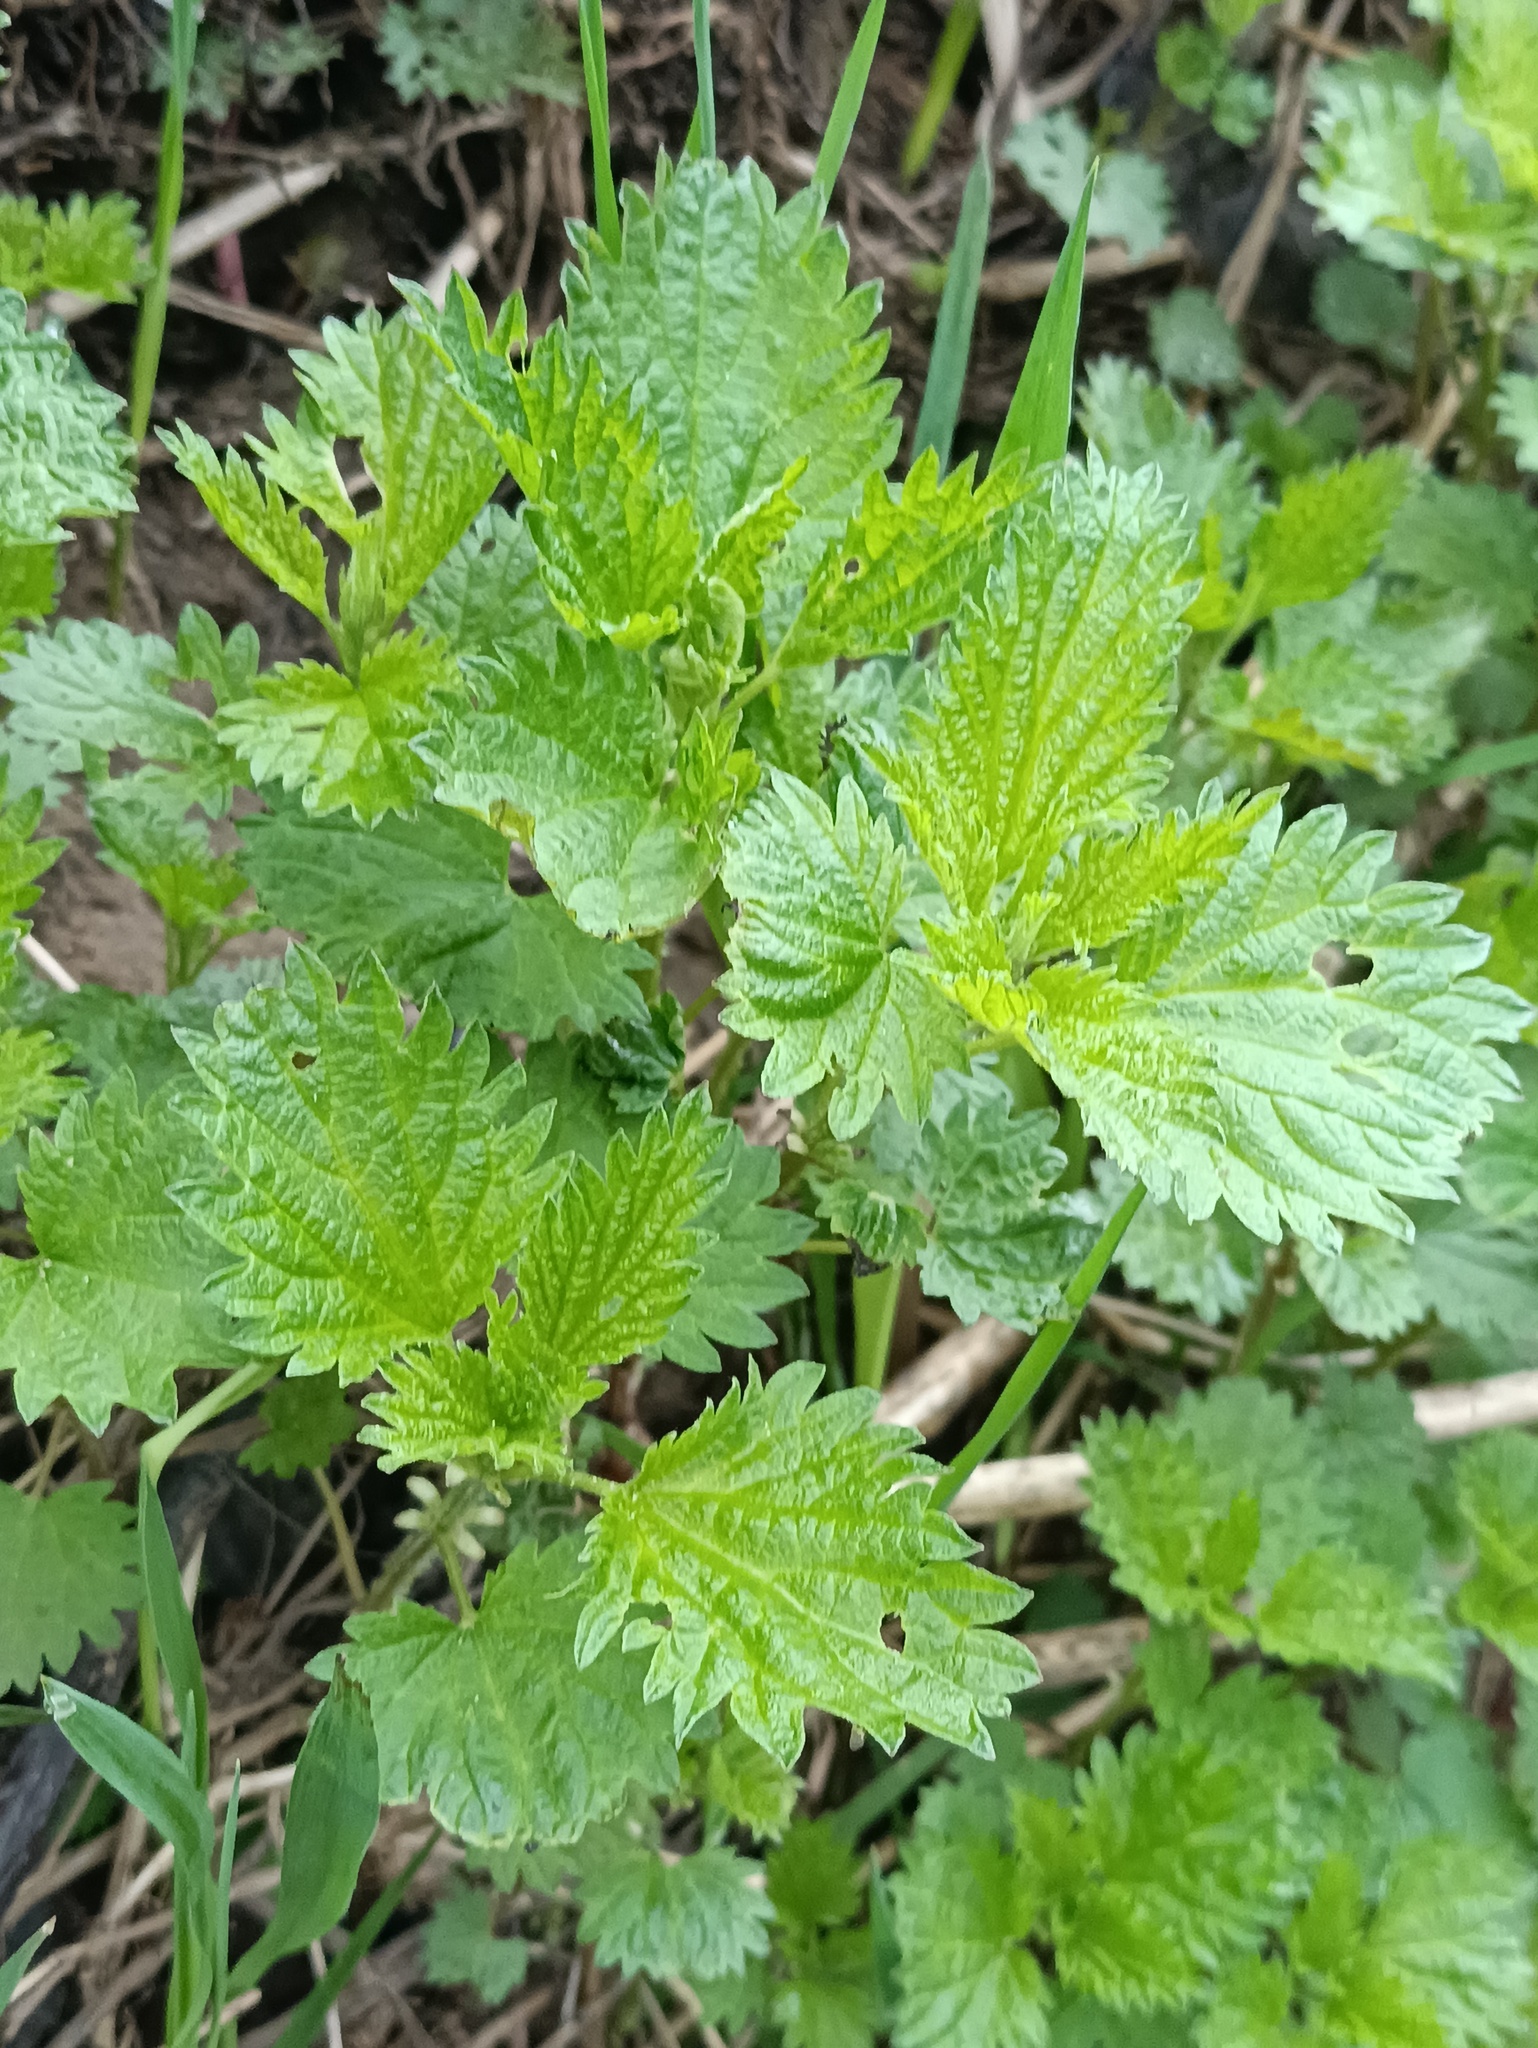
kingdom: Plantae
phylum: Tracheophyta
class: Magnoliopsida
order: Rosales
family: Urticaceae
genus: Urtica
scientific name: Urtica dioica
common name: Common nettle
